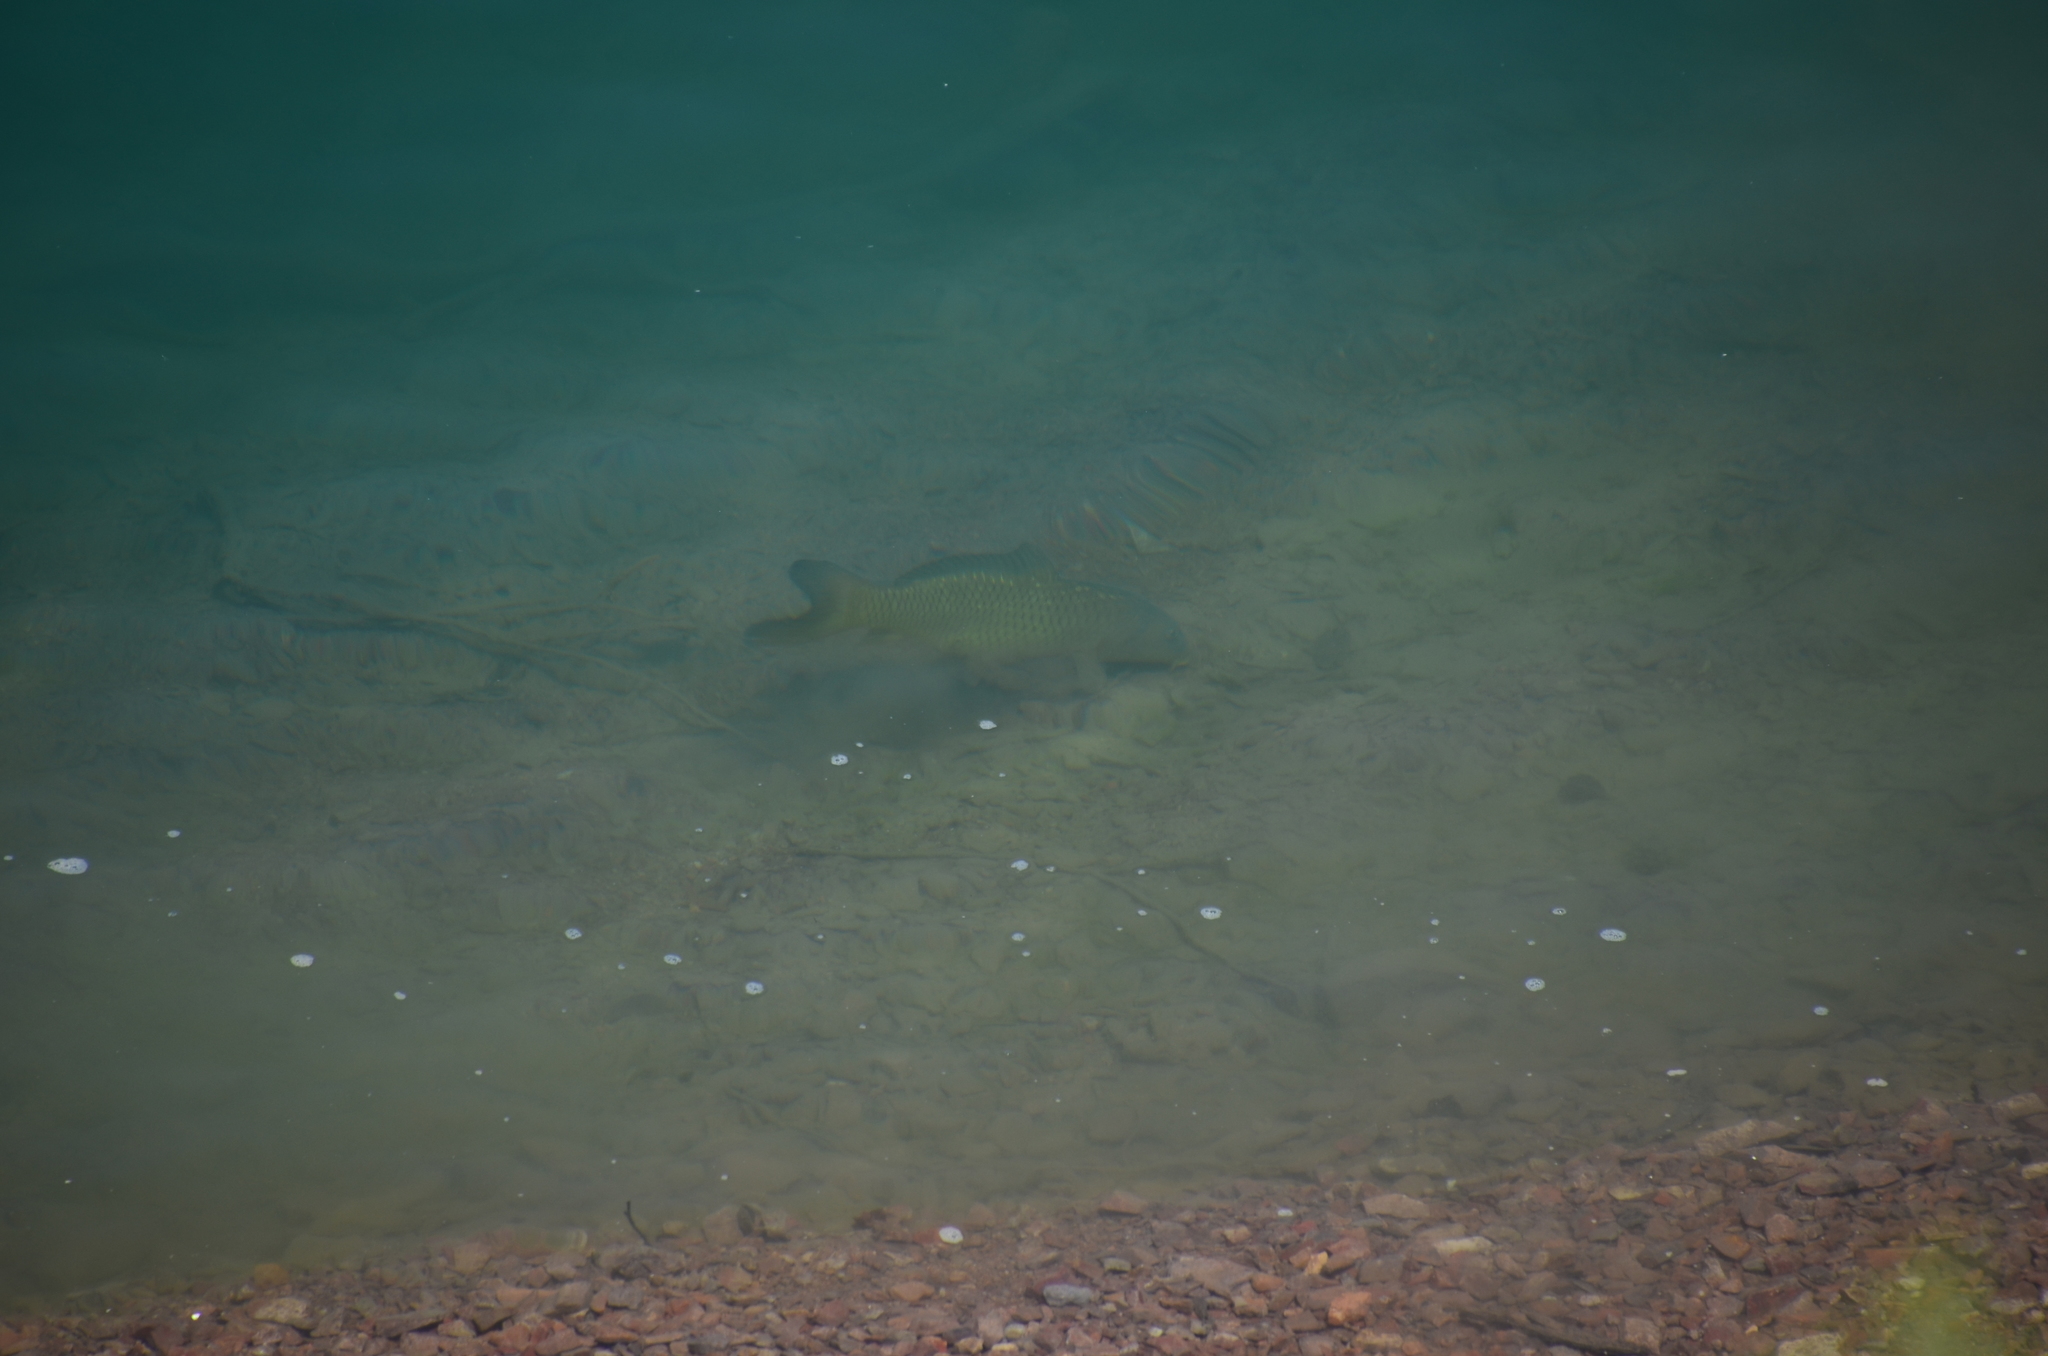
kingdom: Animalia
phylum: Chordata
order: Cypriniformes
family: Cyprinidae
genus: Cyprinus
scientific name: Cyprinus carpio
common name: Common carp
